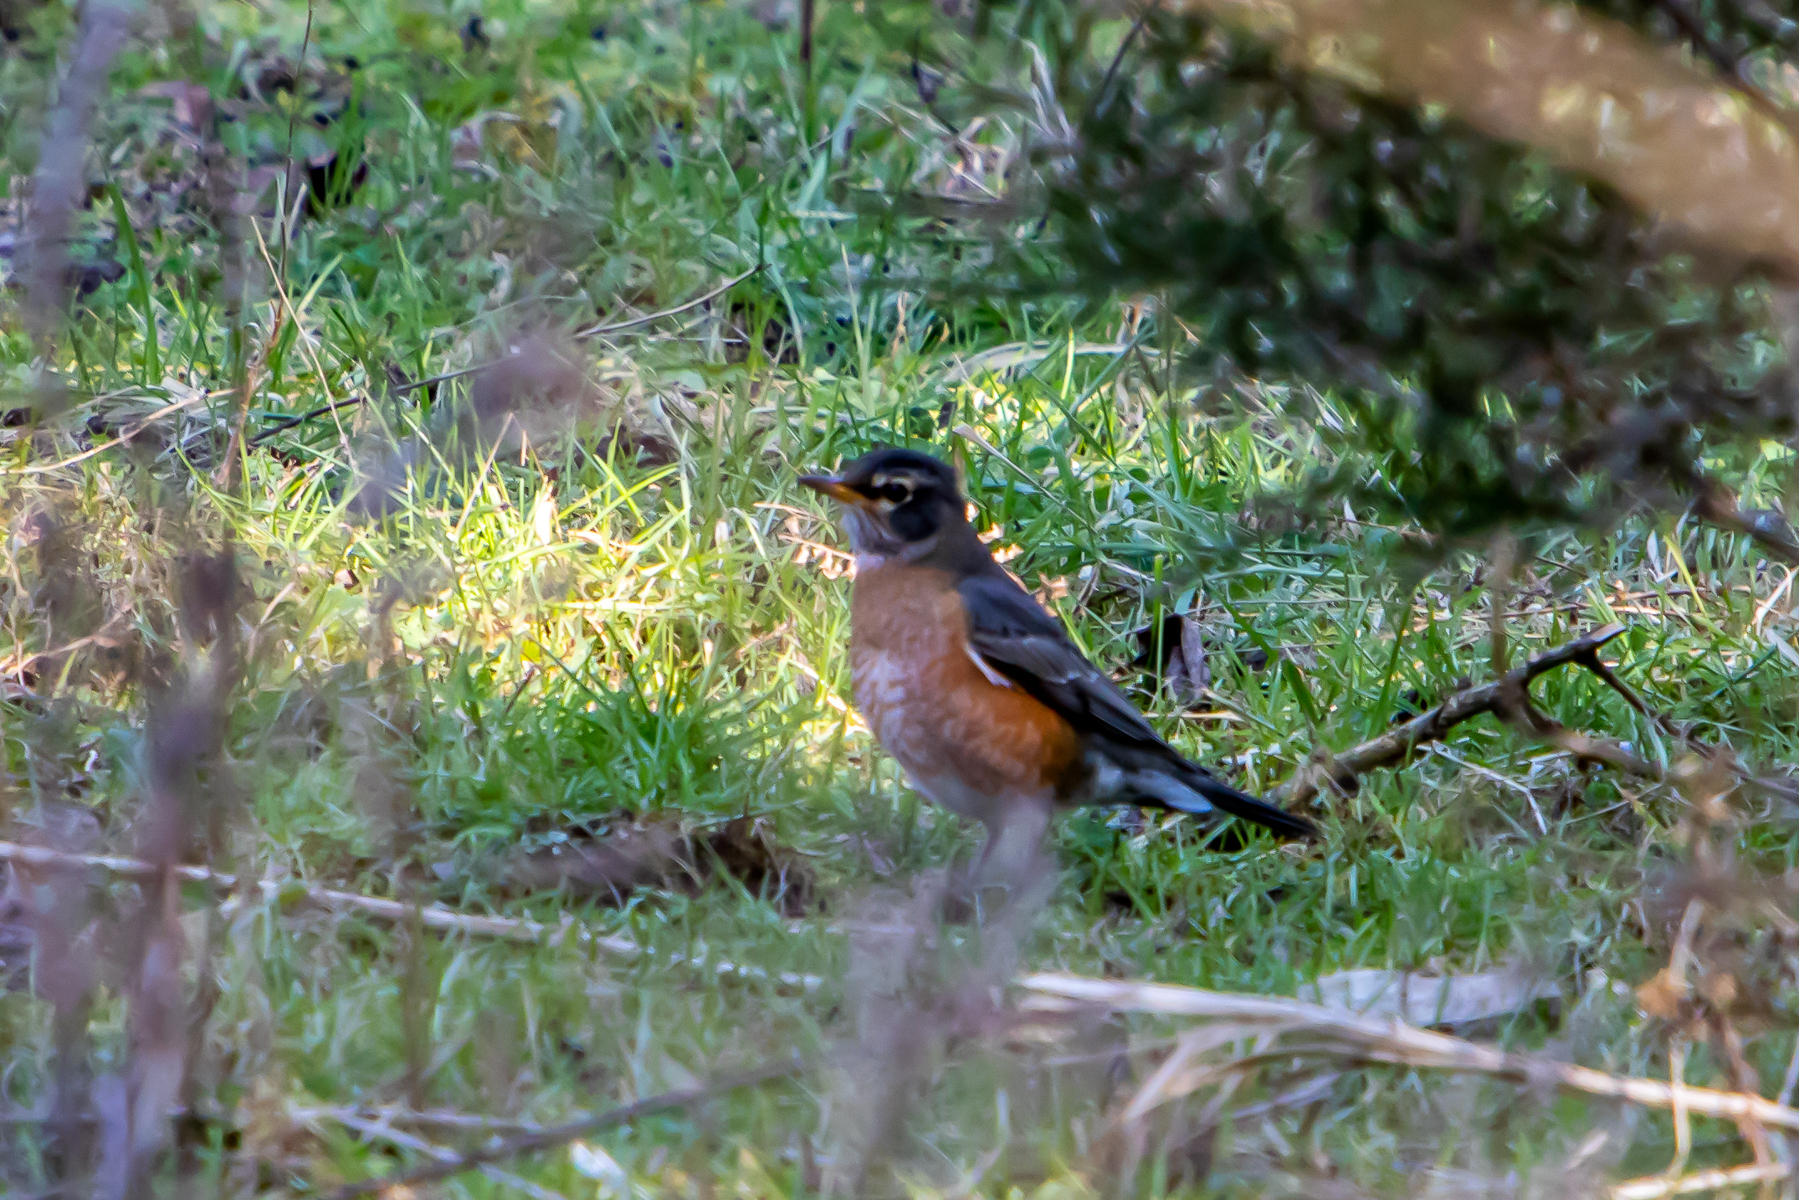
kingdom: Animalia
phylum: Chordata
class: Aves
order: Passeriformes
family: Turdidae
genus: Turdus
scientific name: Turdus migratorius
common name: American robin
